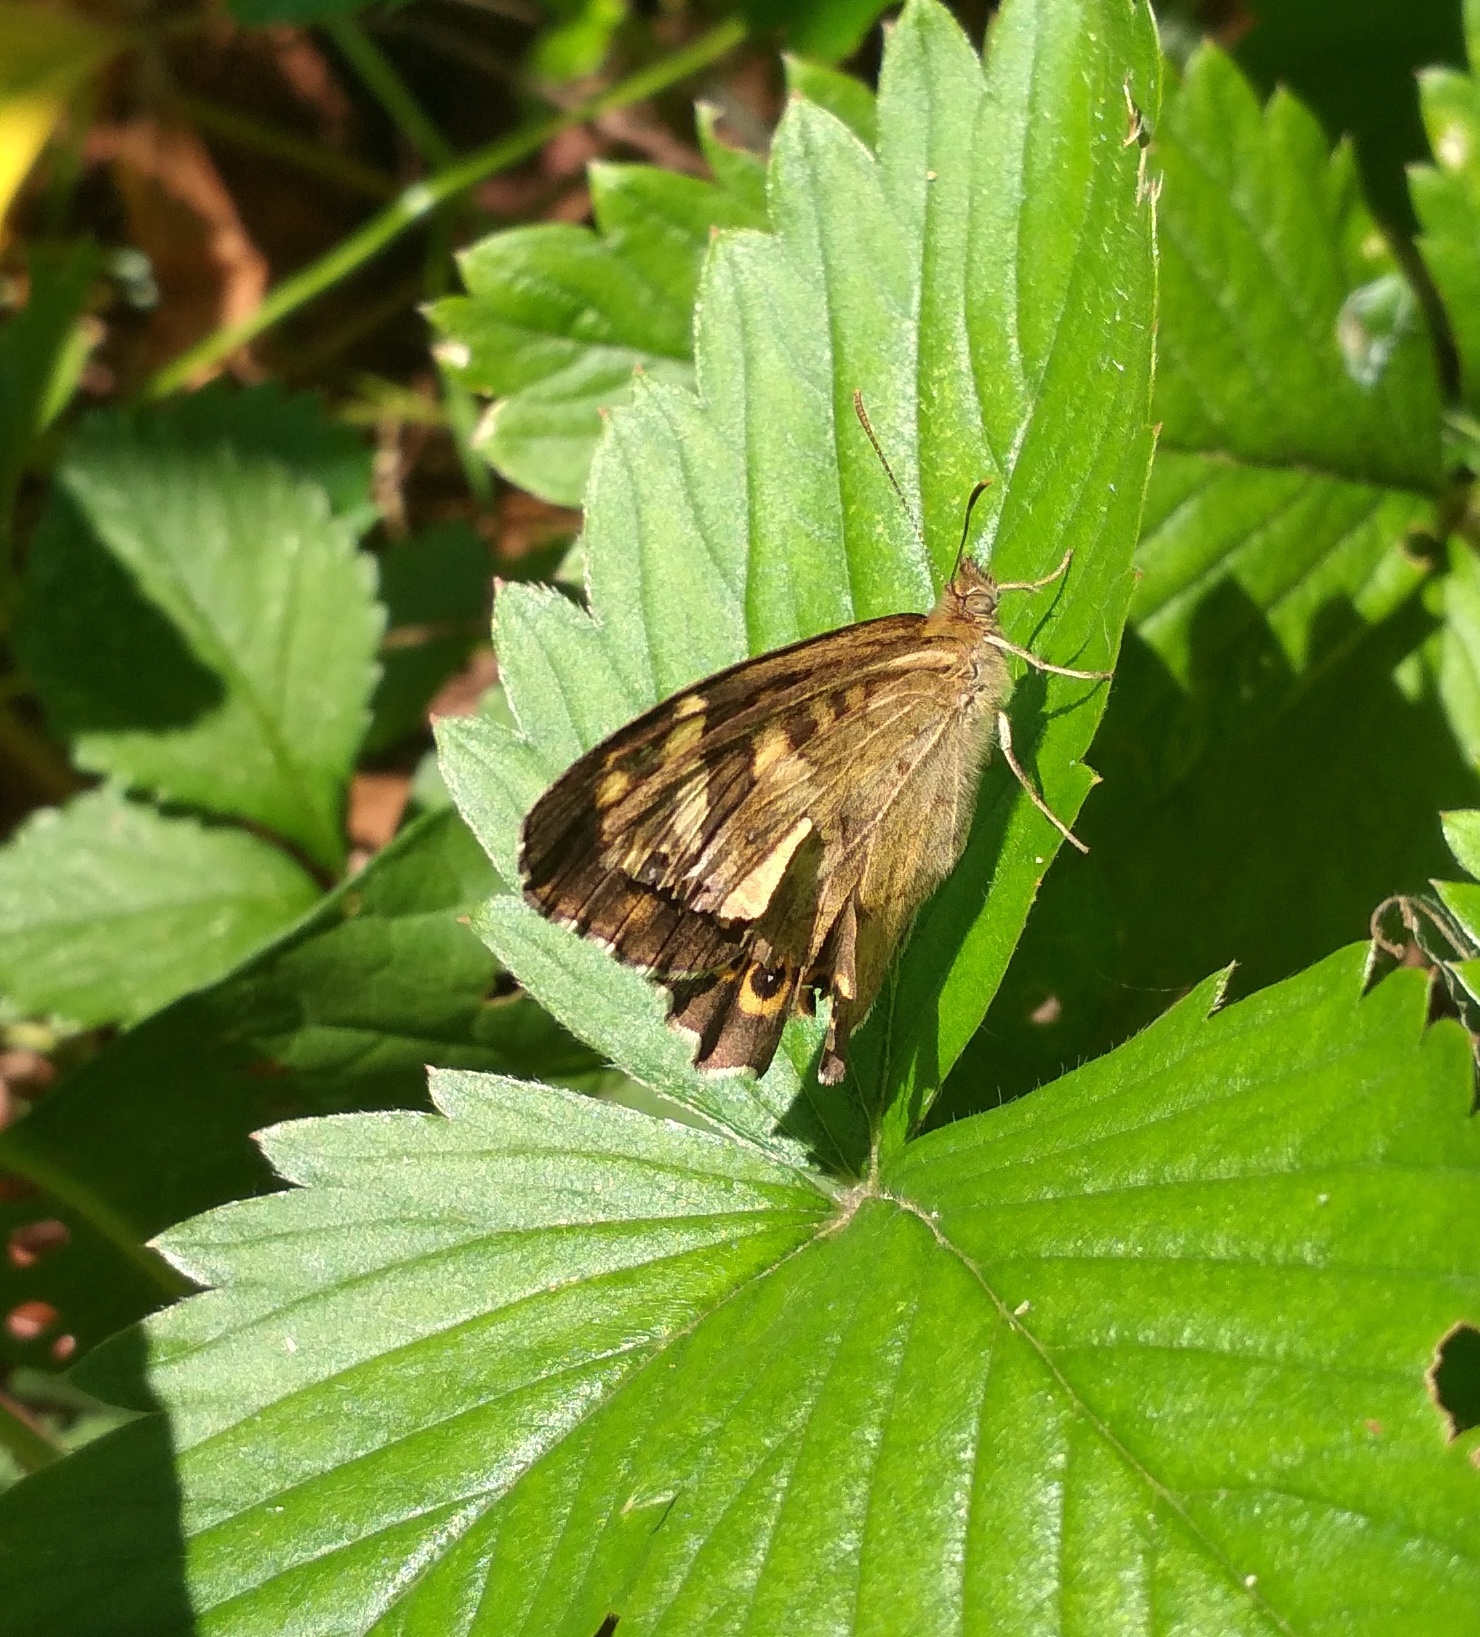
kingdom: Animalia
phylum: Arthropoda
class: Insecta
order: Lepidoptera
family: Nymphalidae
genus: Pararge
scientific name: Pararge aegeria
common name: Speckled wood
